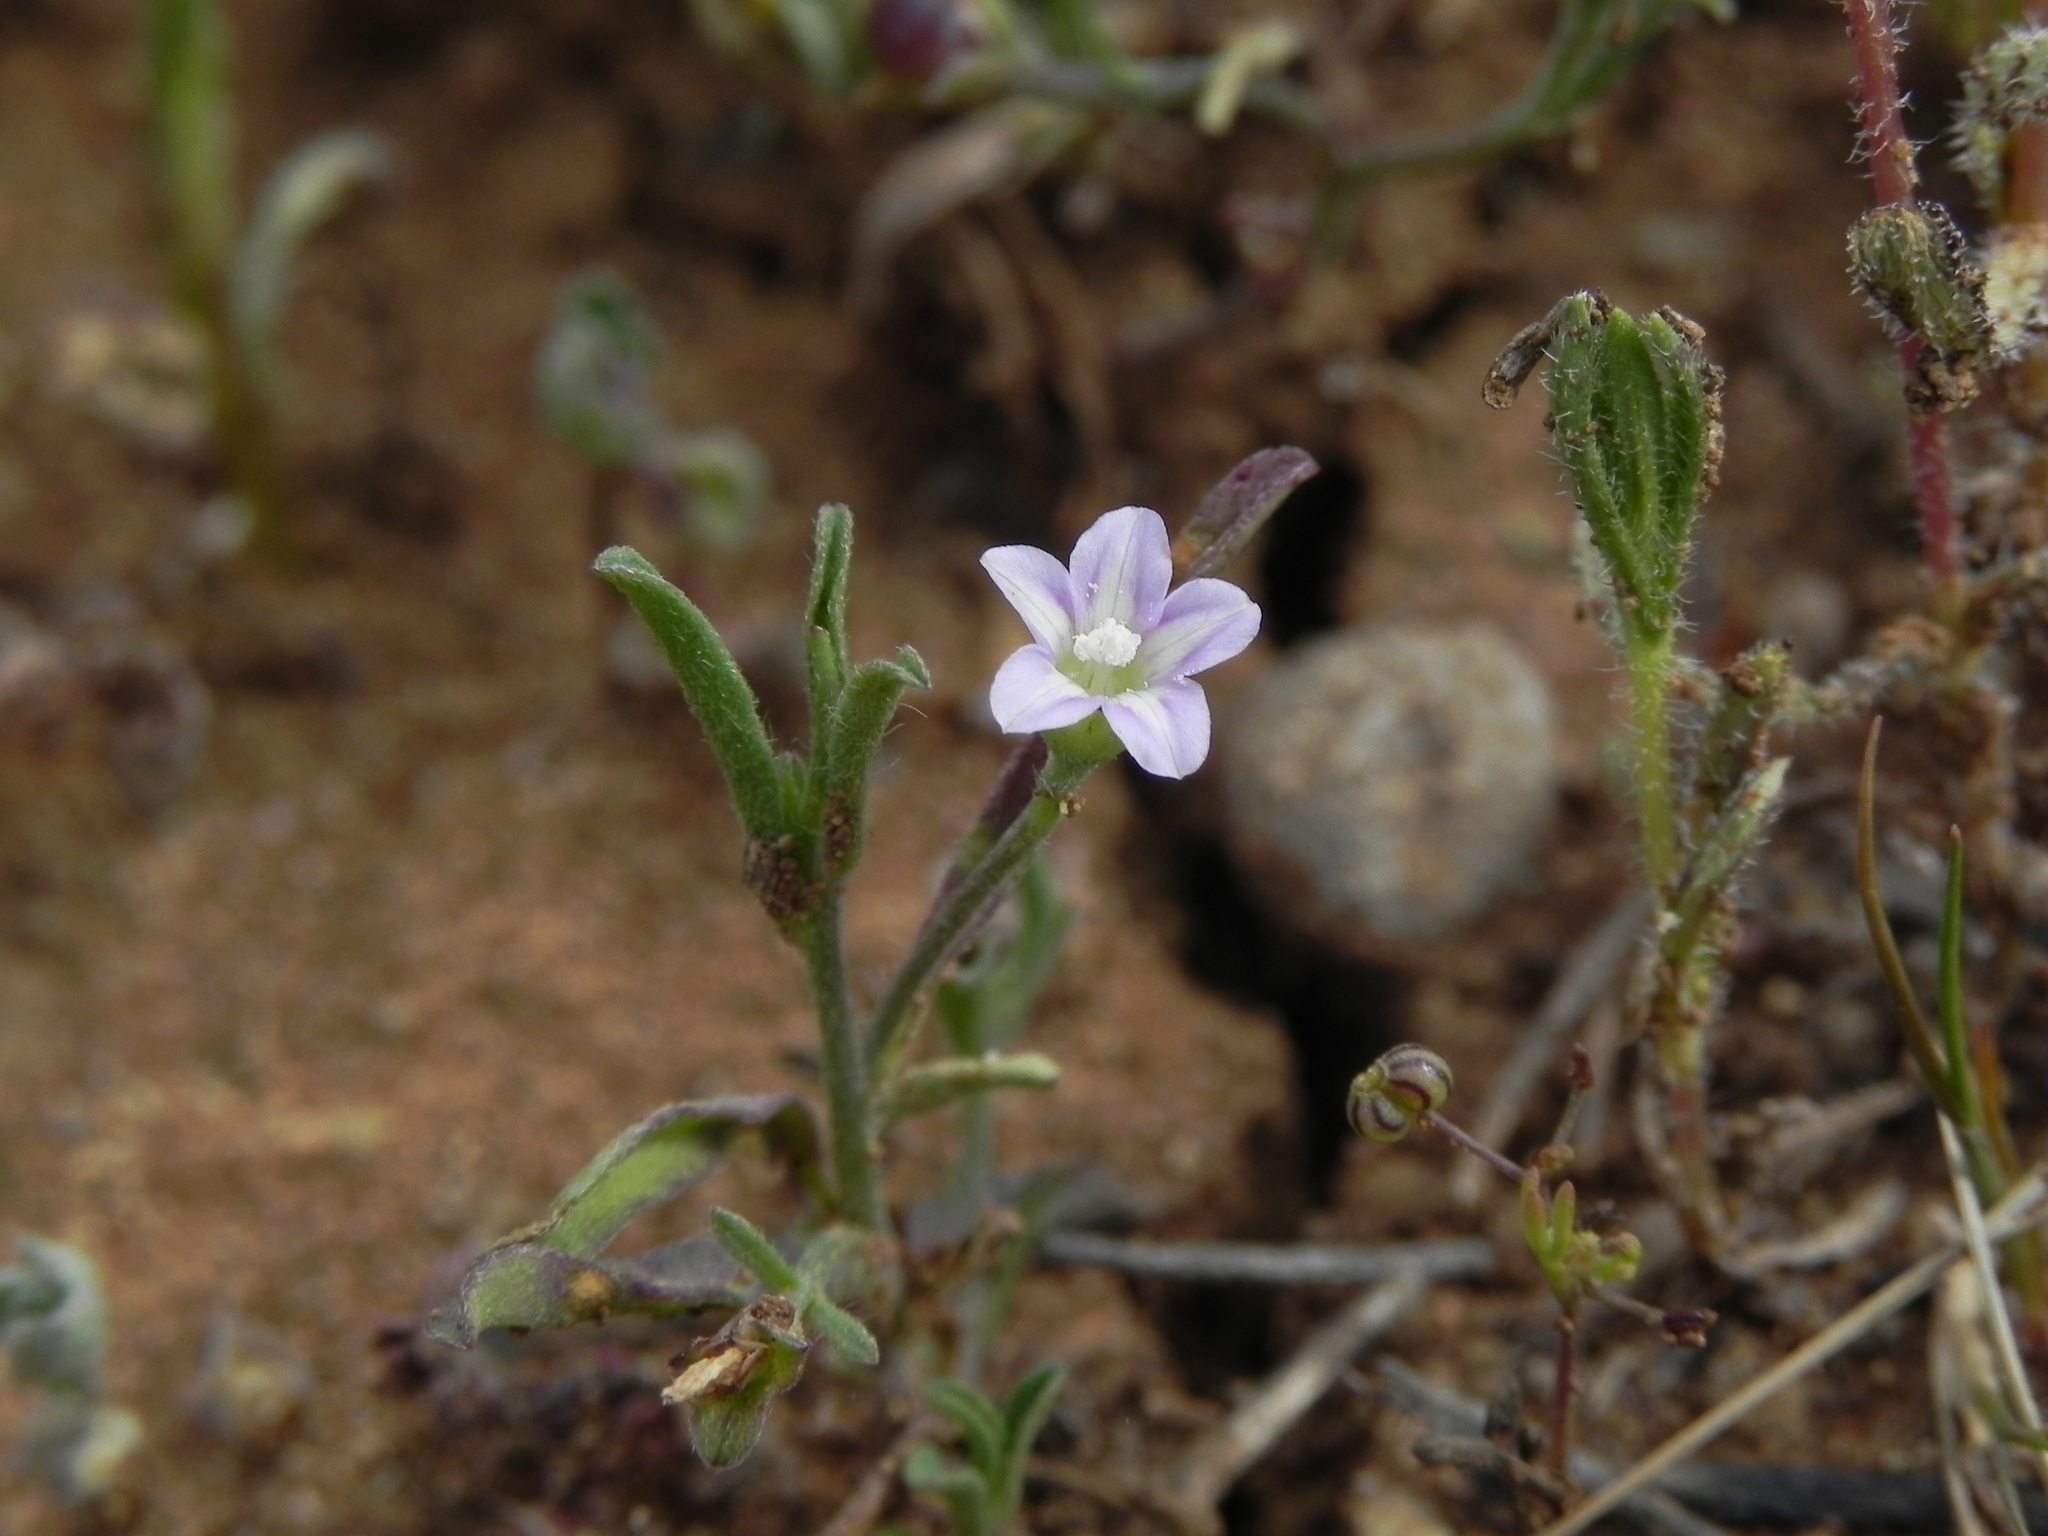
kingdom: Plantae
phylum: Tracheophyta
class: Magnoliopsida
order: Solanales
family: Convolvulaceae
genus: Convolvulus
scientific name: Convolvulus simulans
